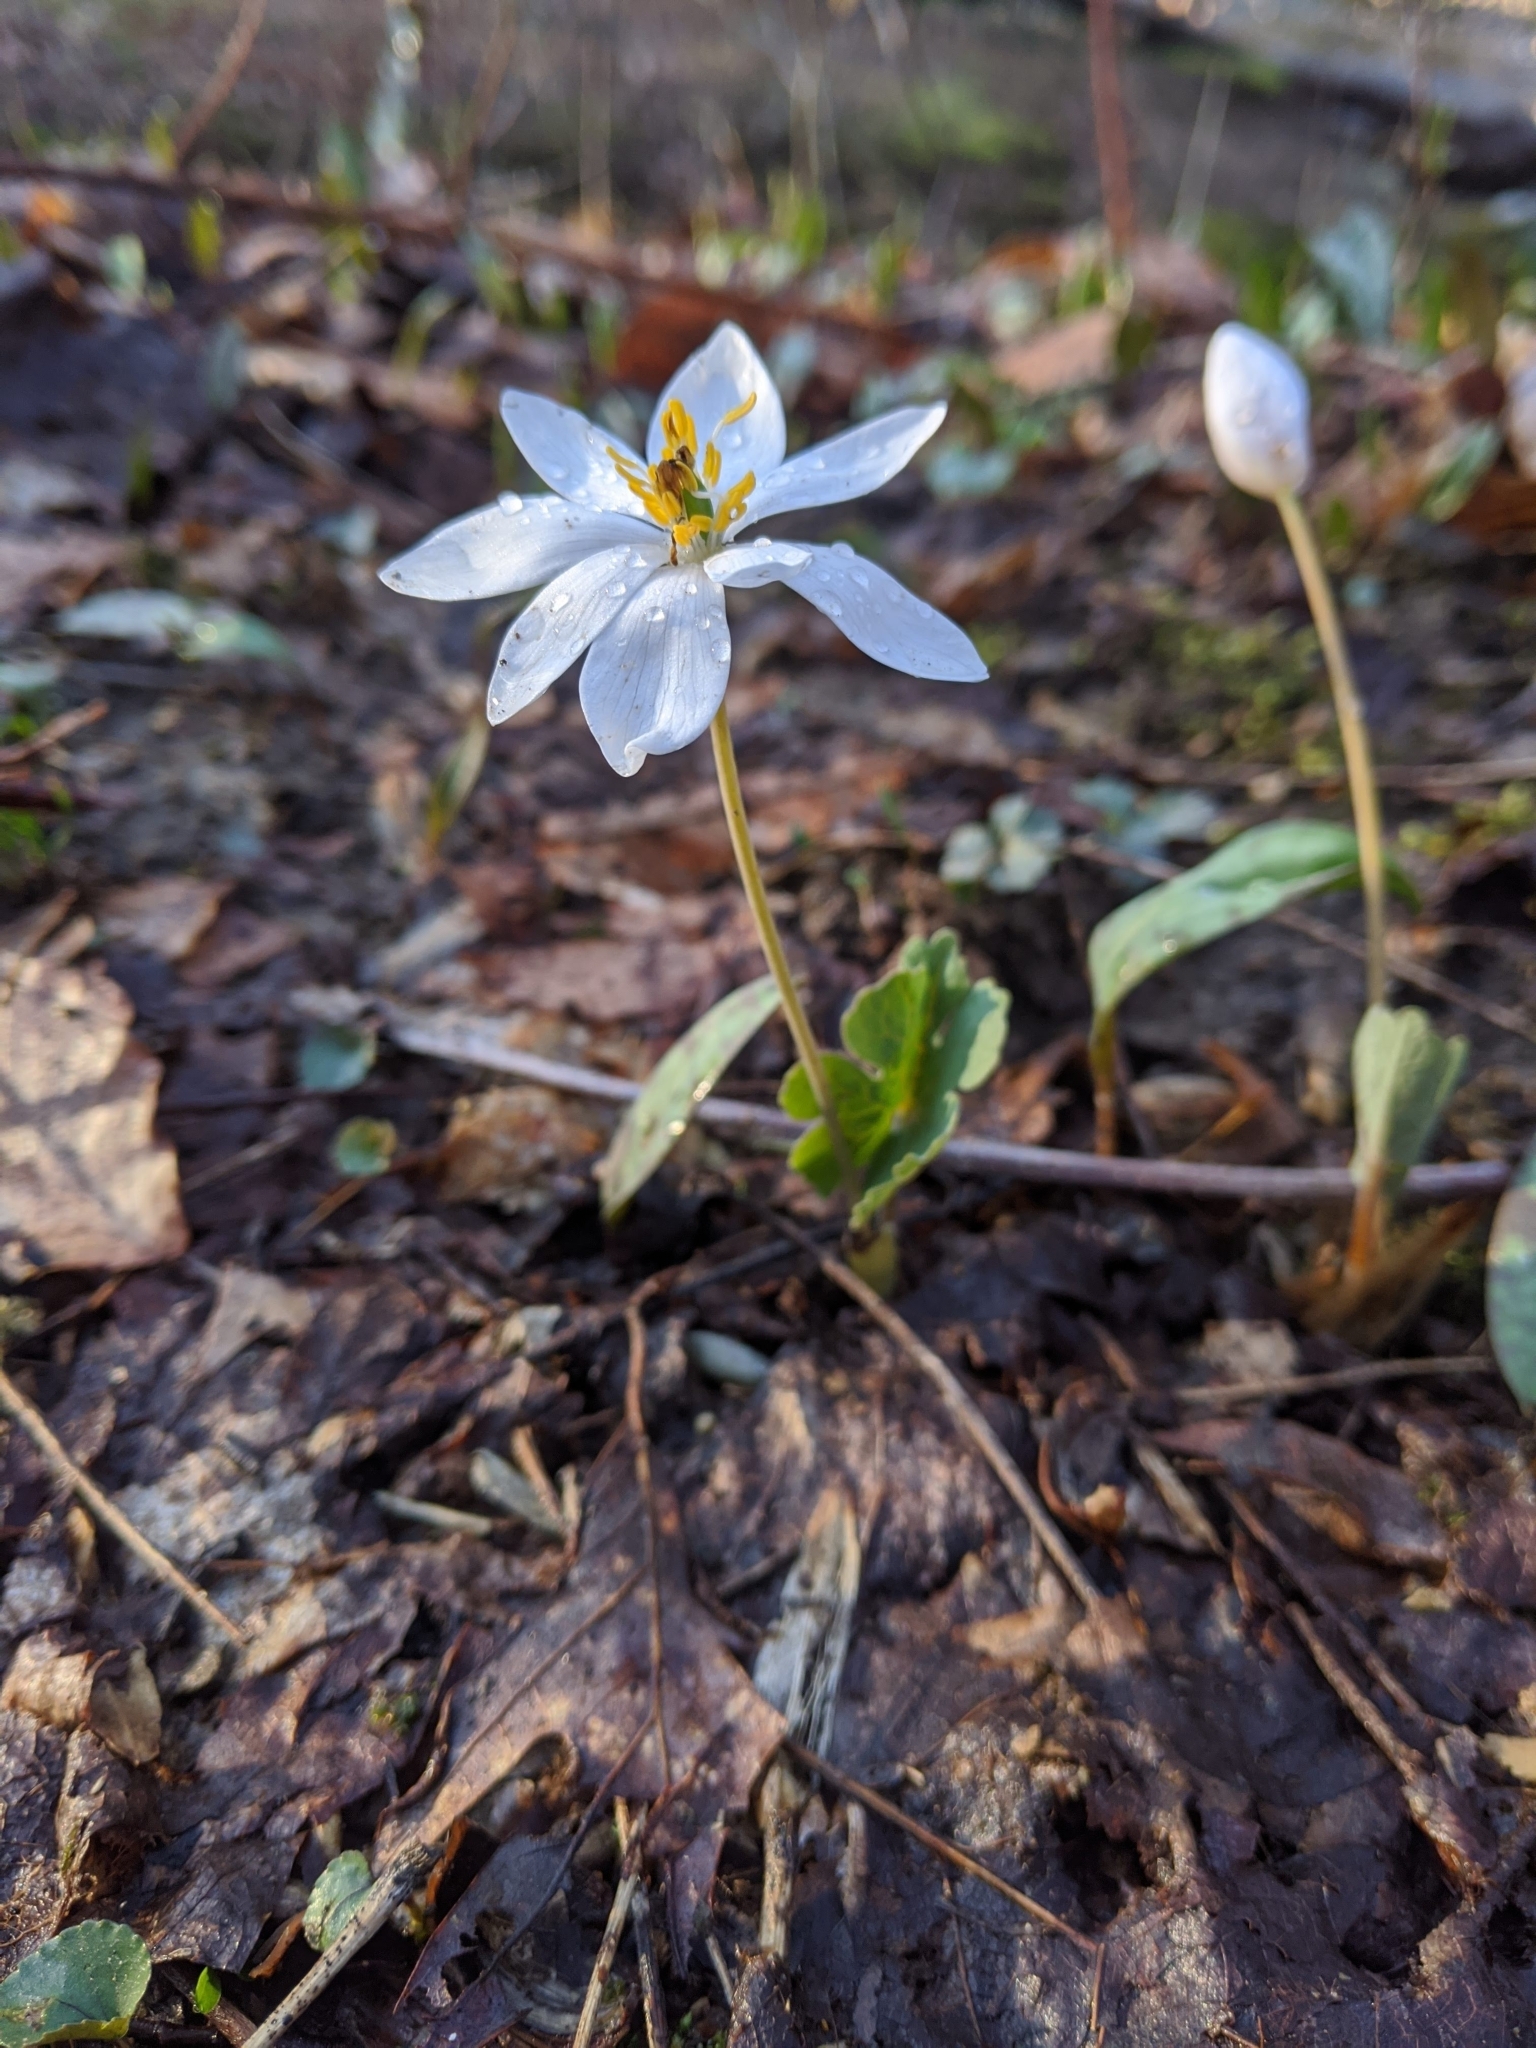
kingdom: Plantae
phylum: Tracheophyta
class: Magnoliopsida
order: Ranunculales
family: Papaveraceae
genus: Sanguinaria
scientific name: Sanguinaria canadensis
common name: Bloodroot
